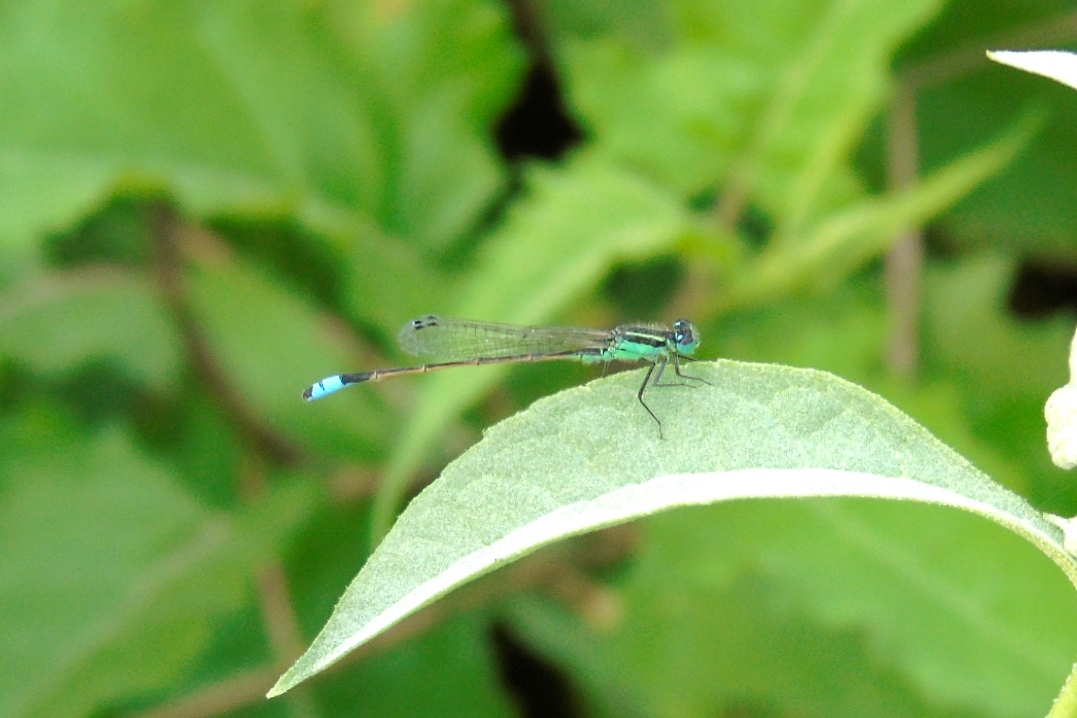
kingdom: Animalia
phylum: Arthropoda
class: Insecta
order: Odonata
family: Coenagrionidae
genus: Ischnura
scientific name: Ischnura
